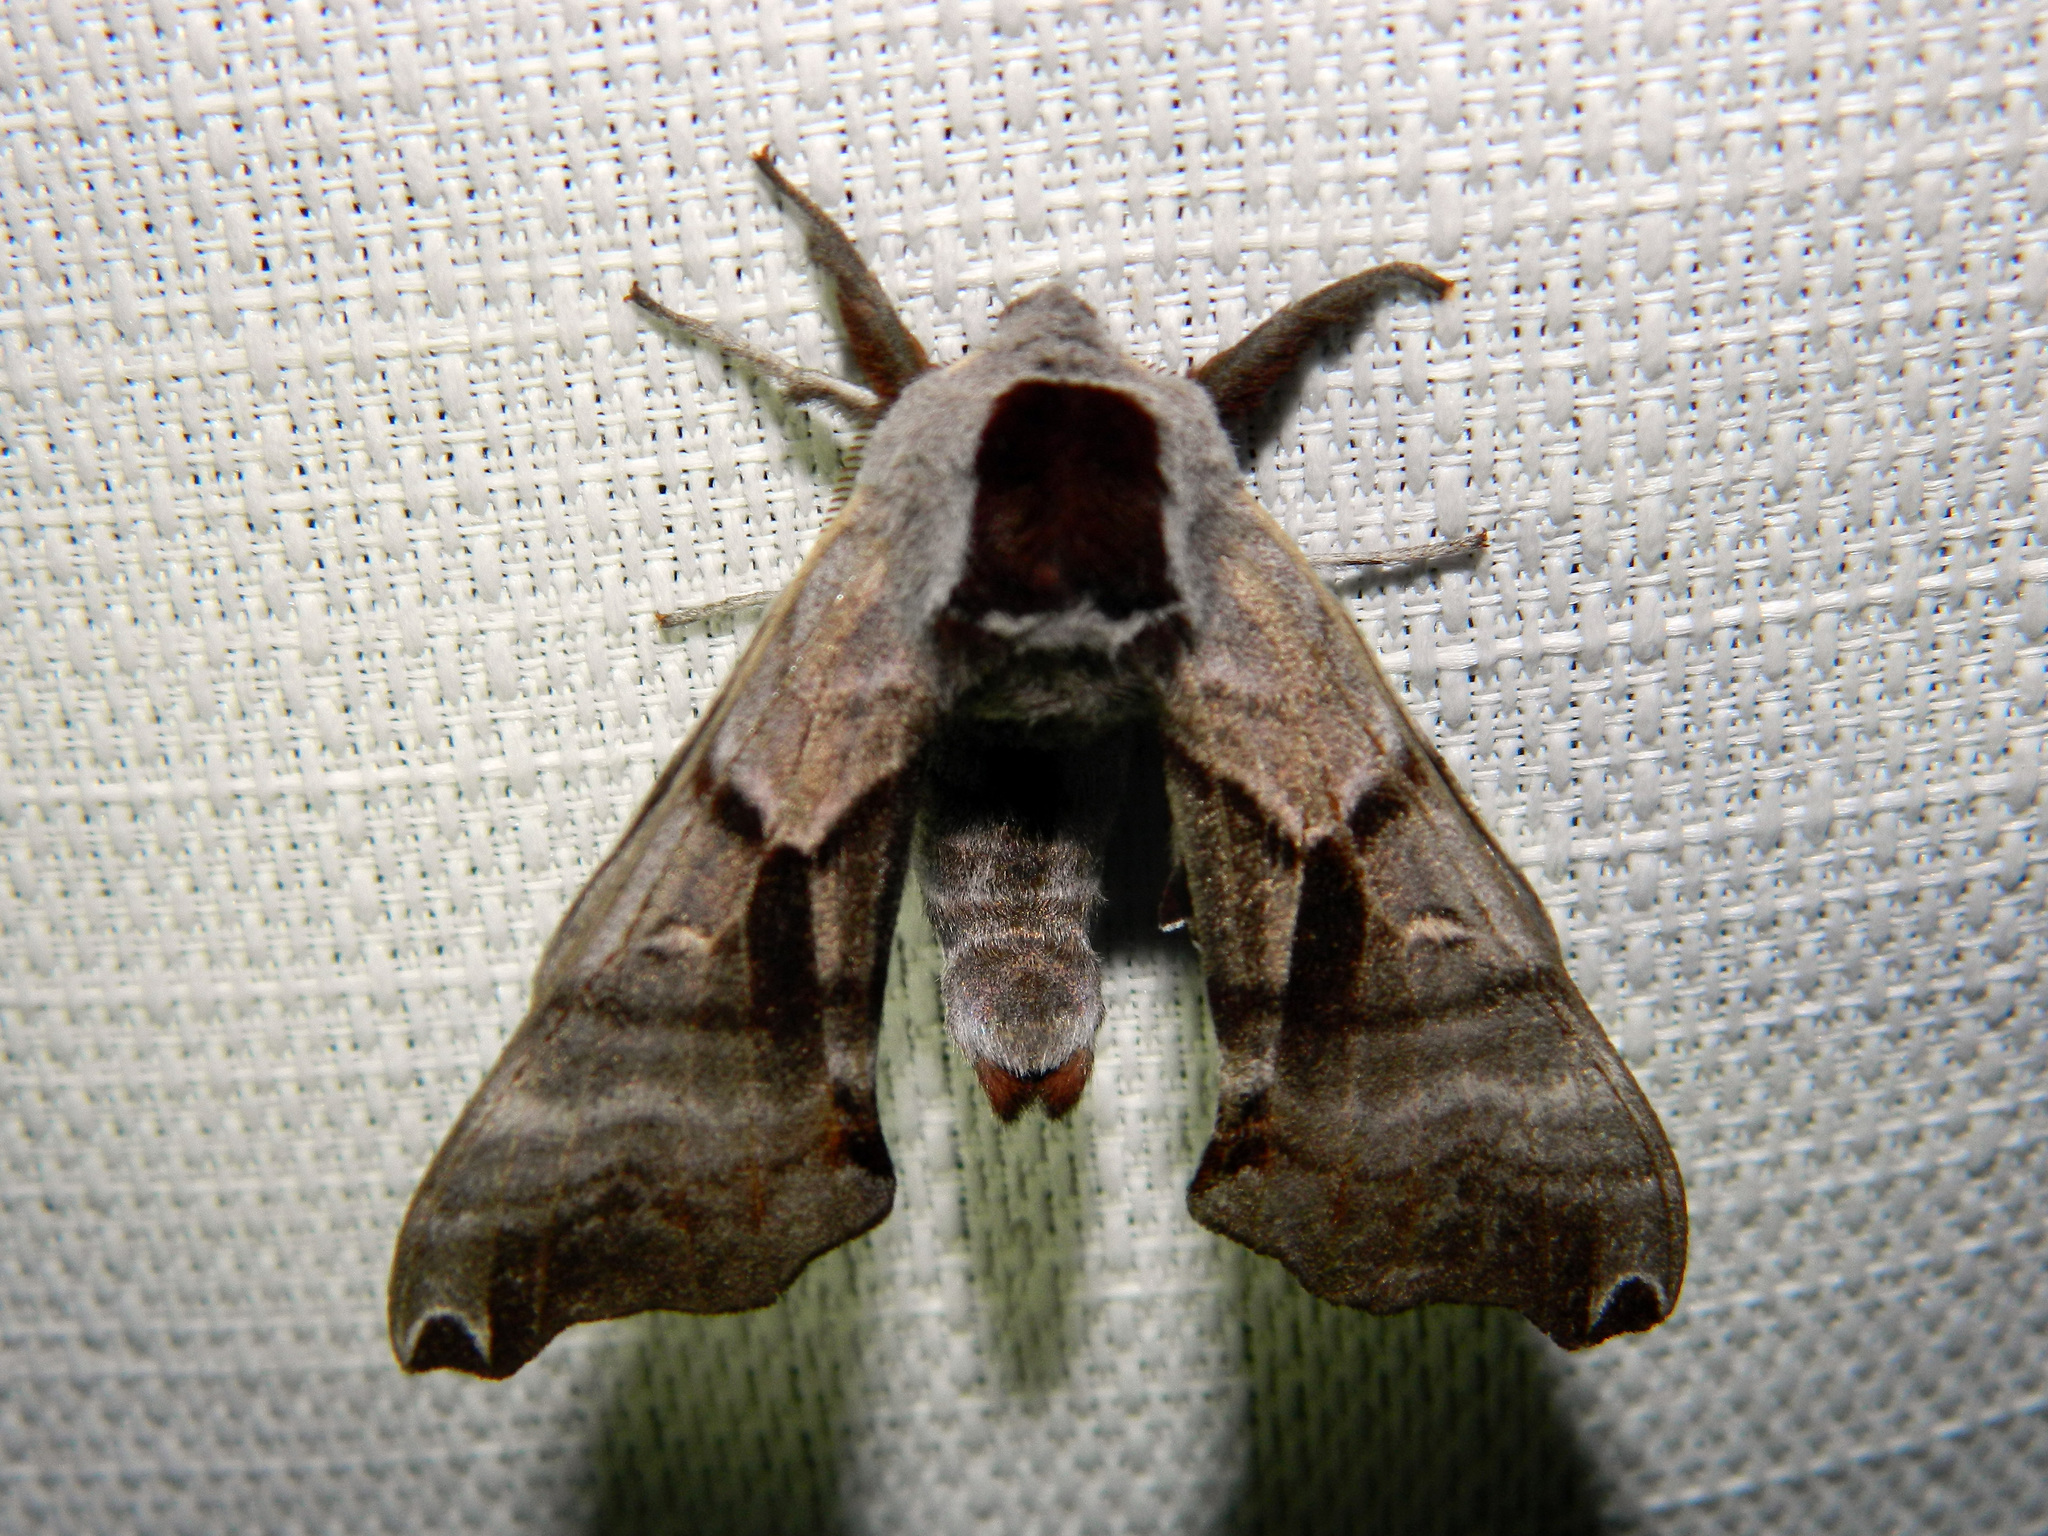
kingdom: Animalia
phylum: Arthropoda
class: Insecta
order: Lepidoptera
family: Sphingidae
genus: Smerinthus
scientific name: Smerinthus jamaicensis
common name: Twin spotted sphinx
